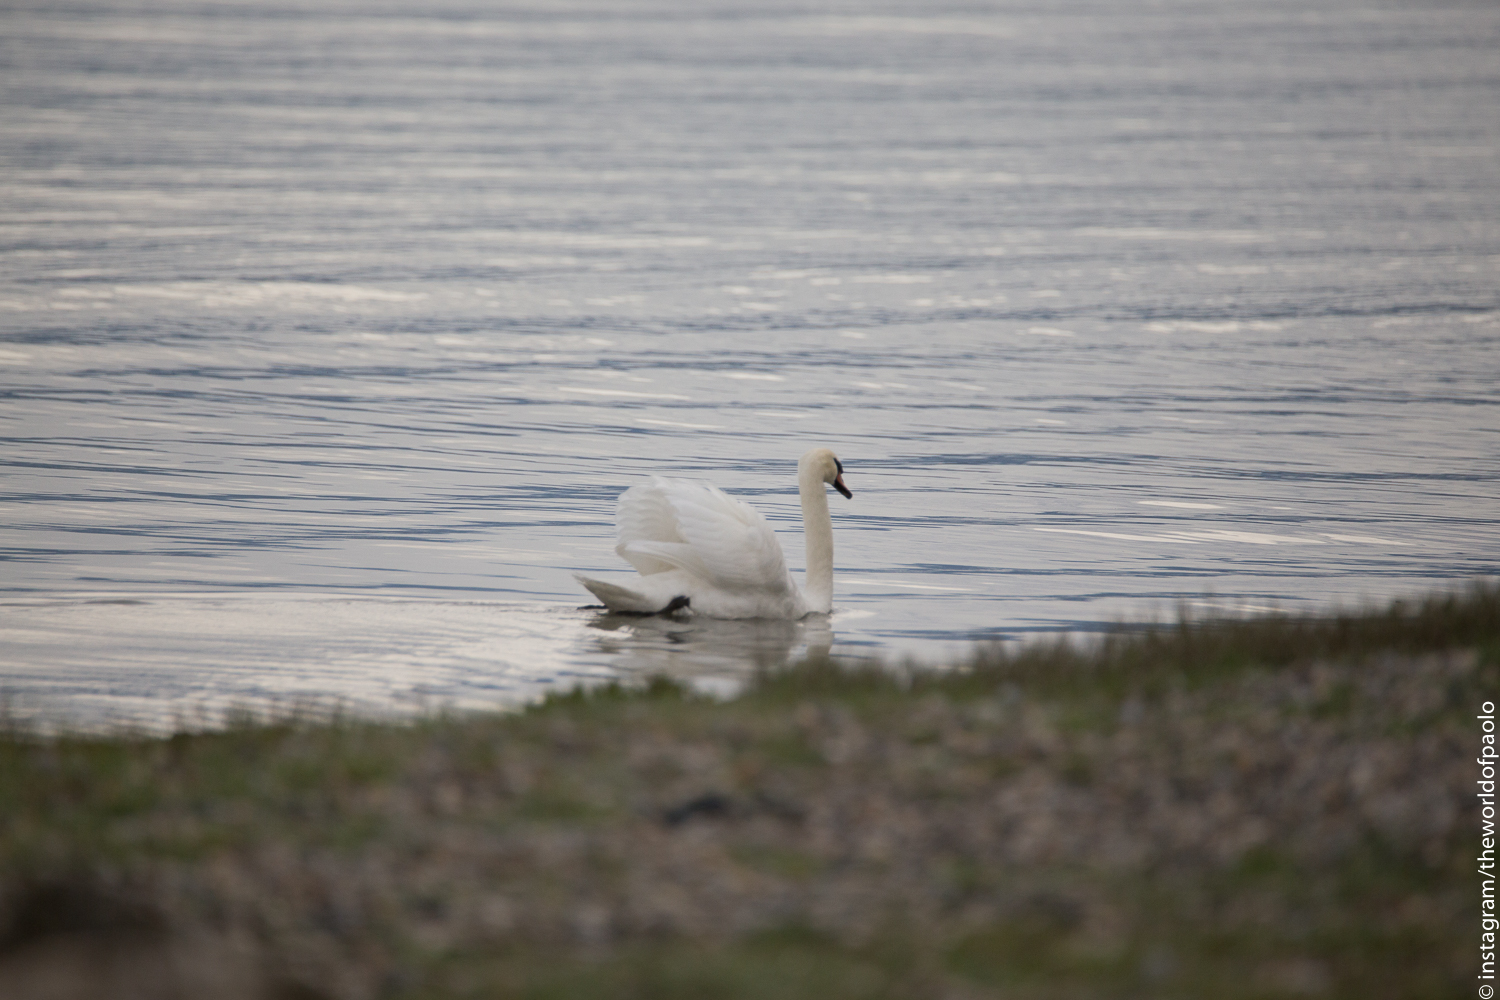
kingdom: Animalia
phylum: Chordata
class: Aves
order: Anseriformes
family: Anatidae
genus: Cygnus
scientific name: Cygnus olor
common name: Mute swan
